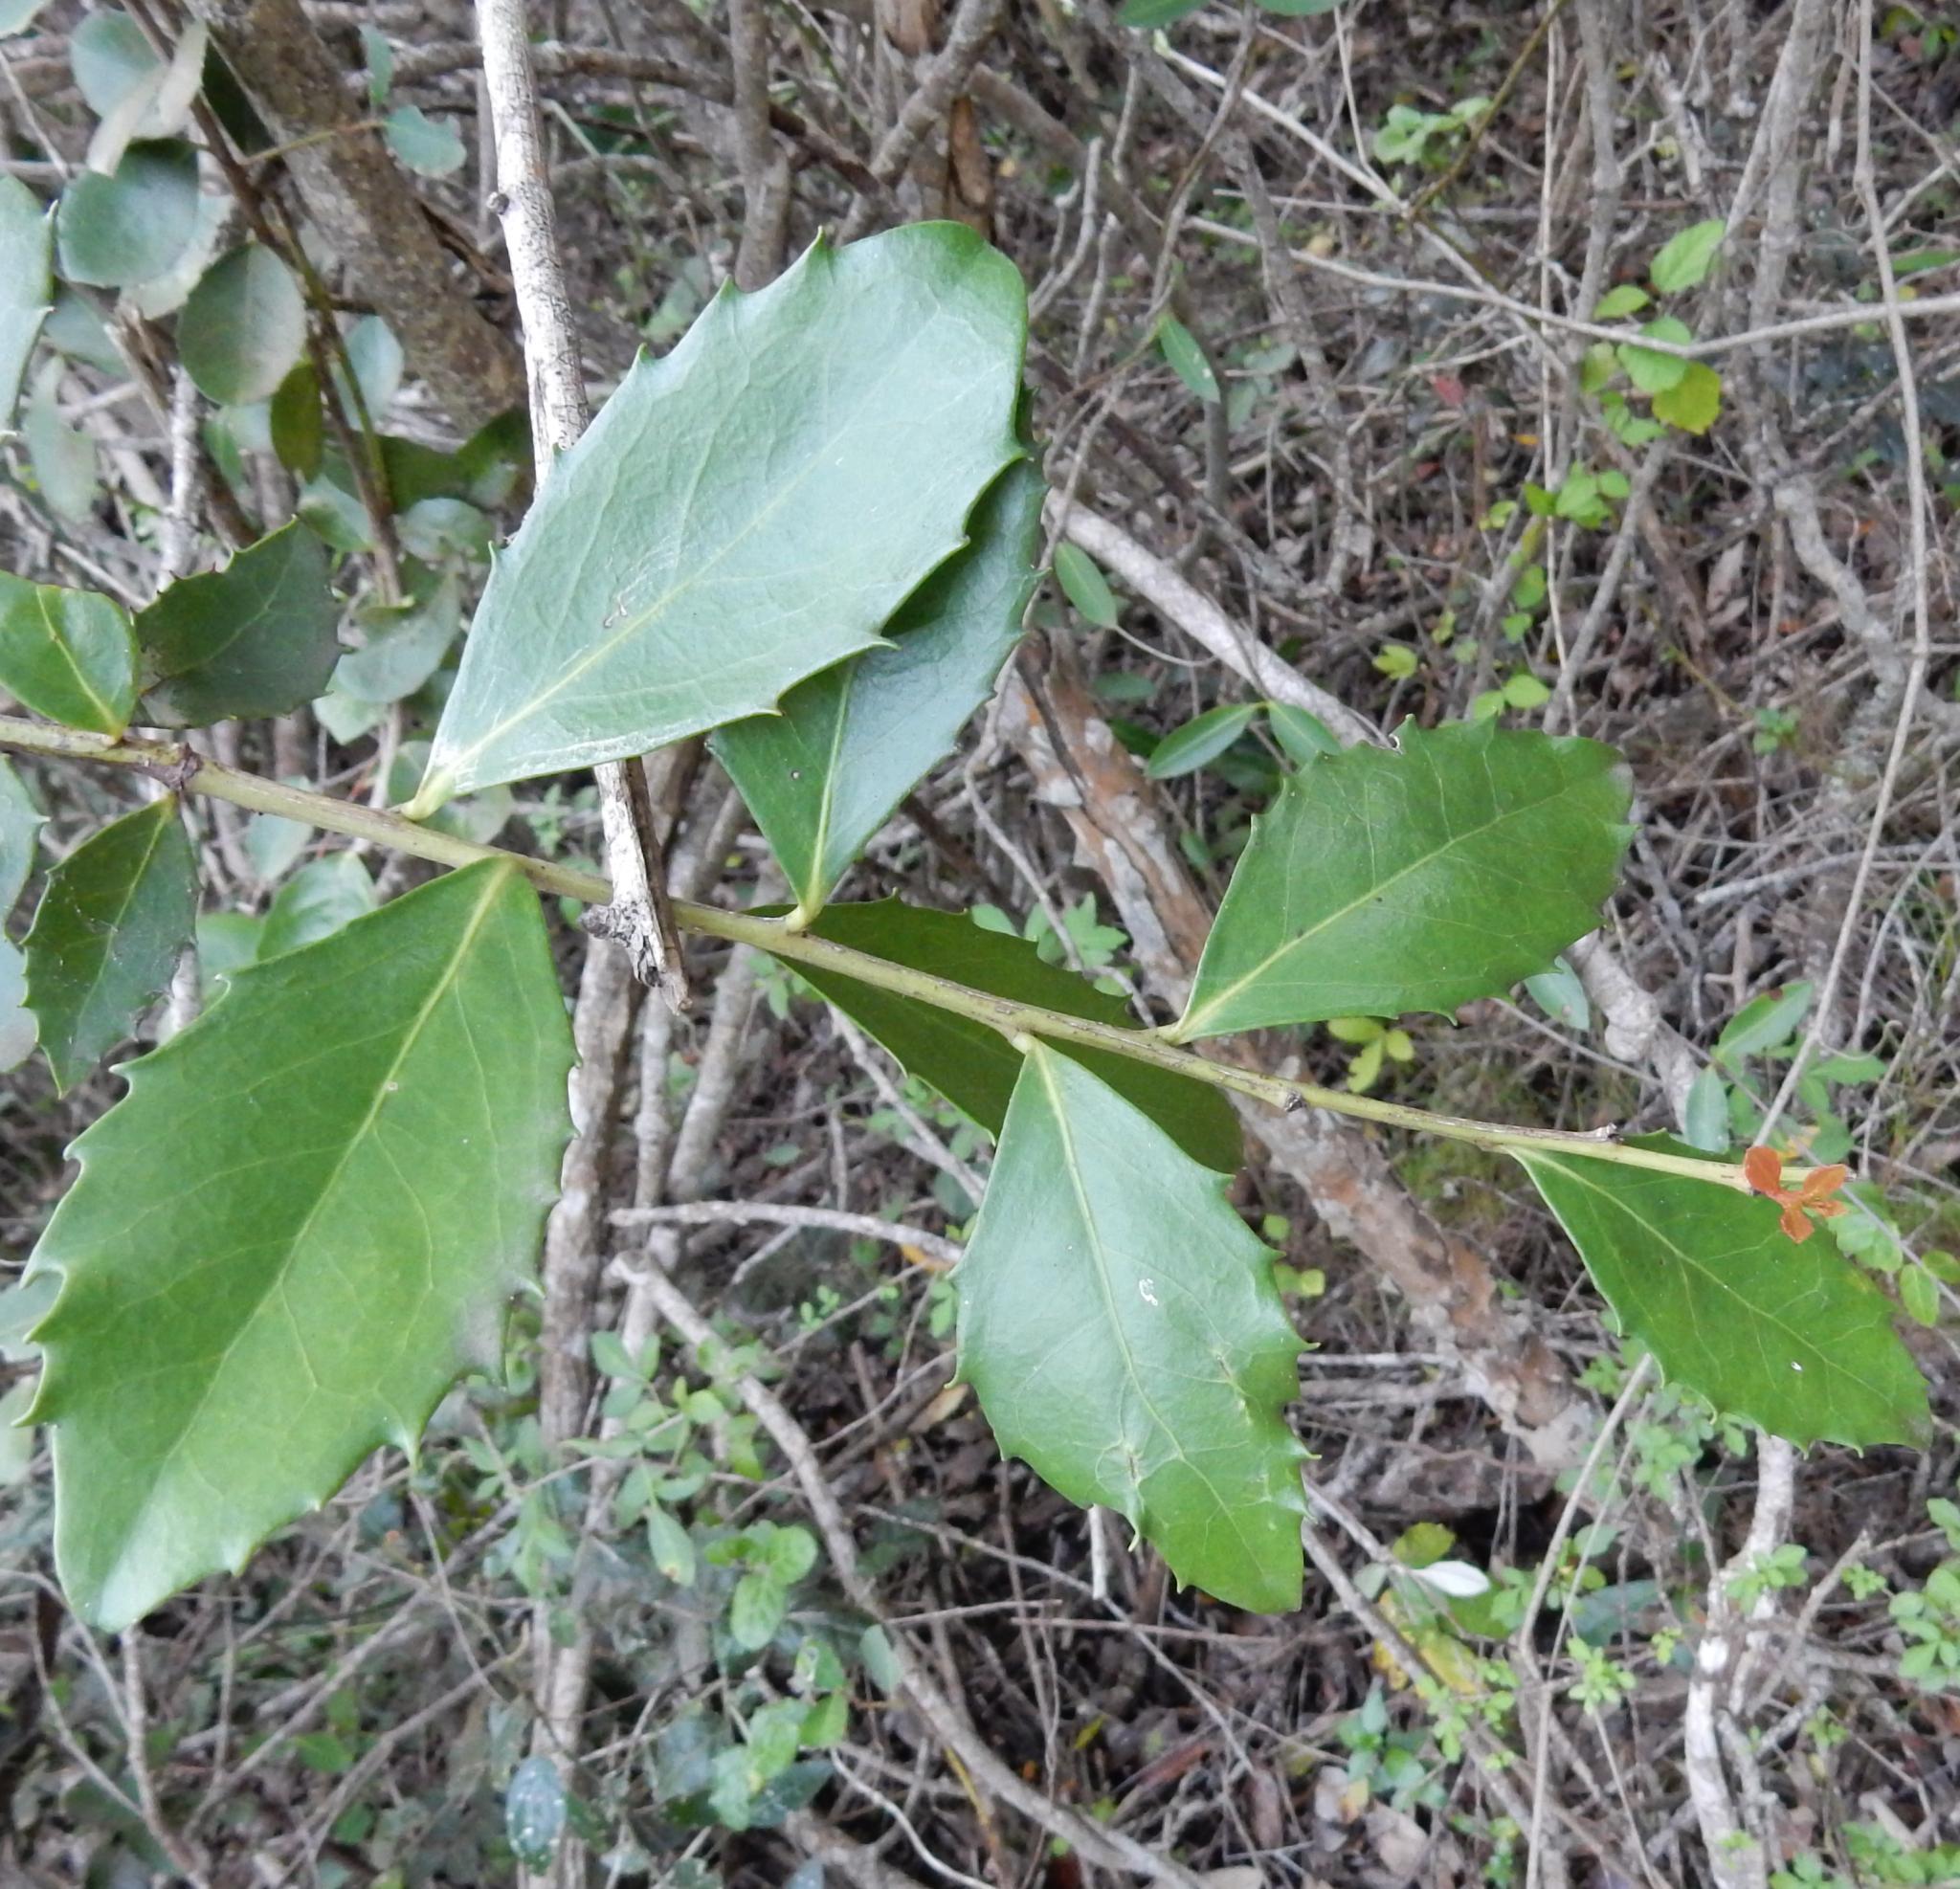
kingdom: Plantae
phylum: Tracheophyta
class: Magnoliopsida
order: Celastrales
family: Celastraceae
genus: Gymnosporia
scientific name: Gymnosporia procumbens
